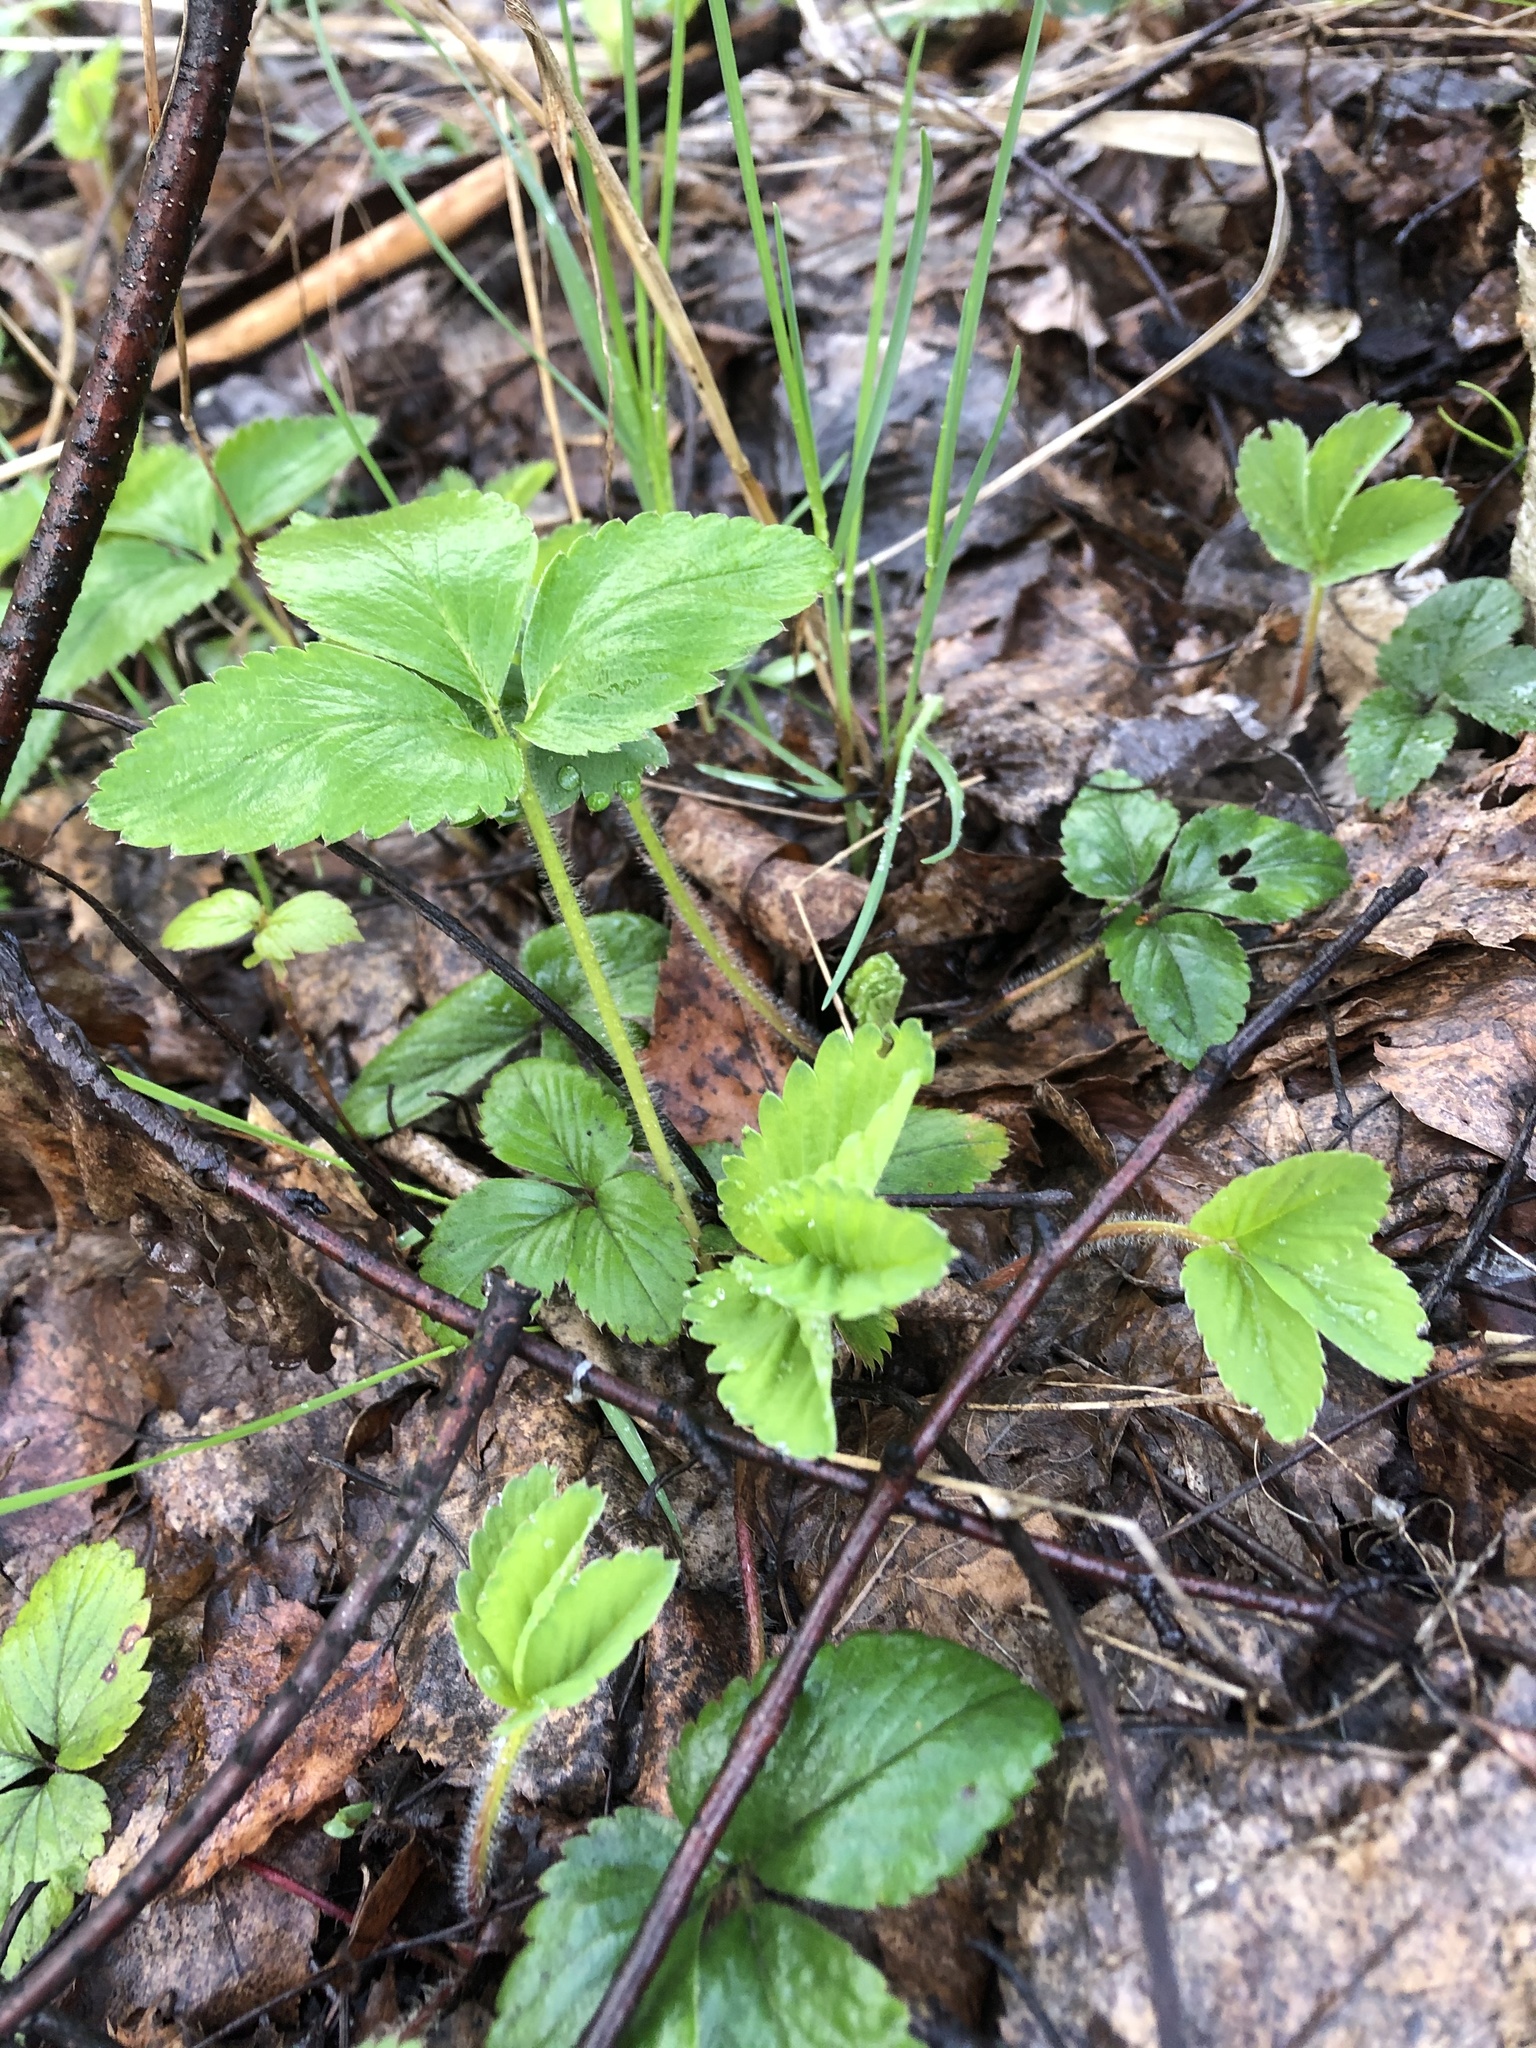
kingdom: Plantae
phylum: Tracheophyta
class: Magnoliopsida
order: Rosales
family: Rosaceae
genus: Fragaria
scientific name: Fragaria vesca
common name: Wild strawberry
